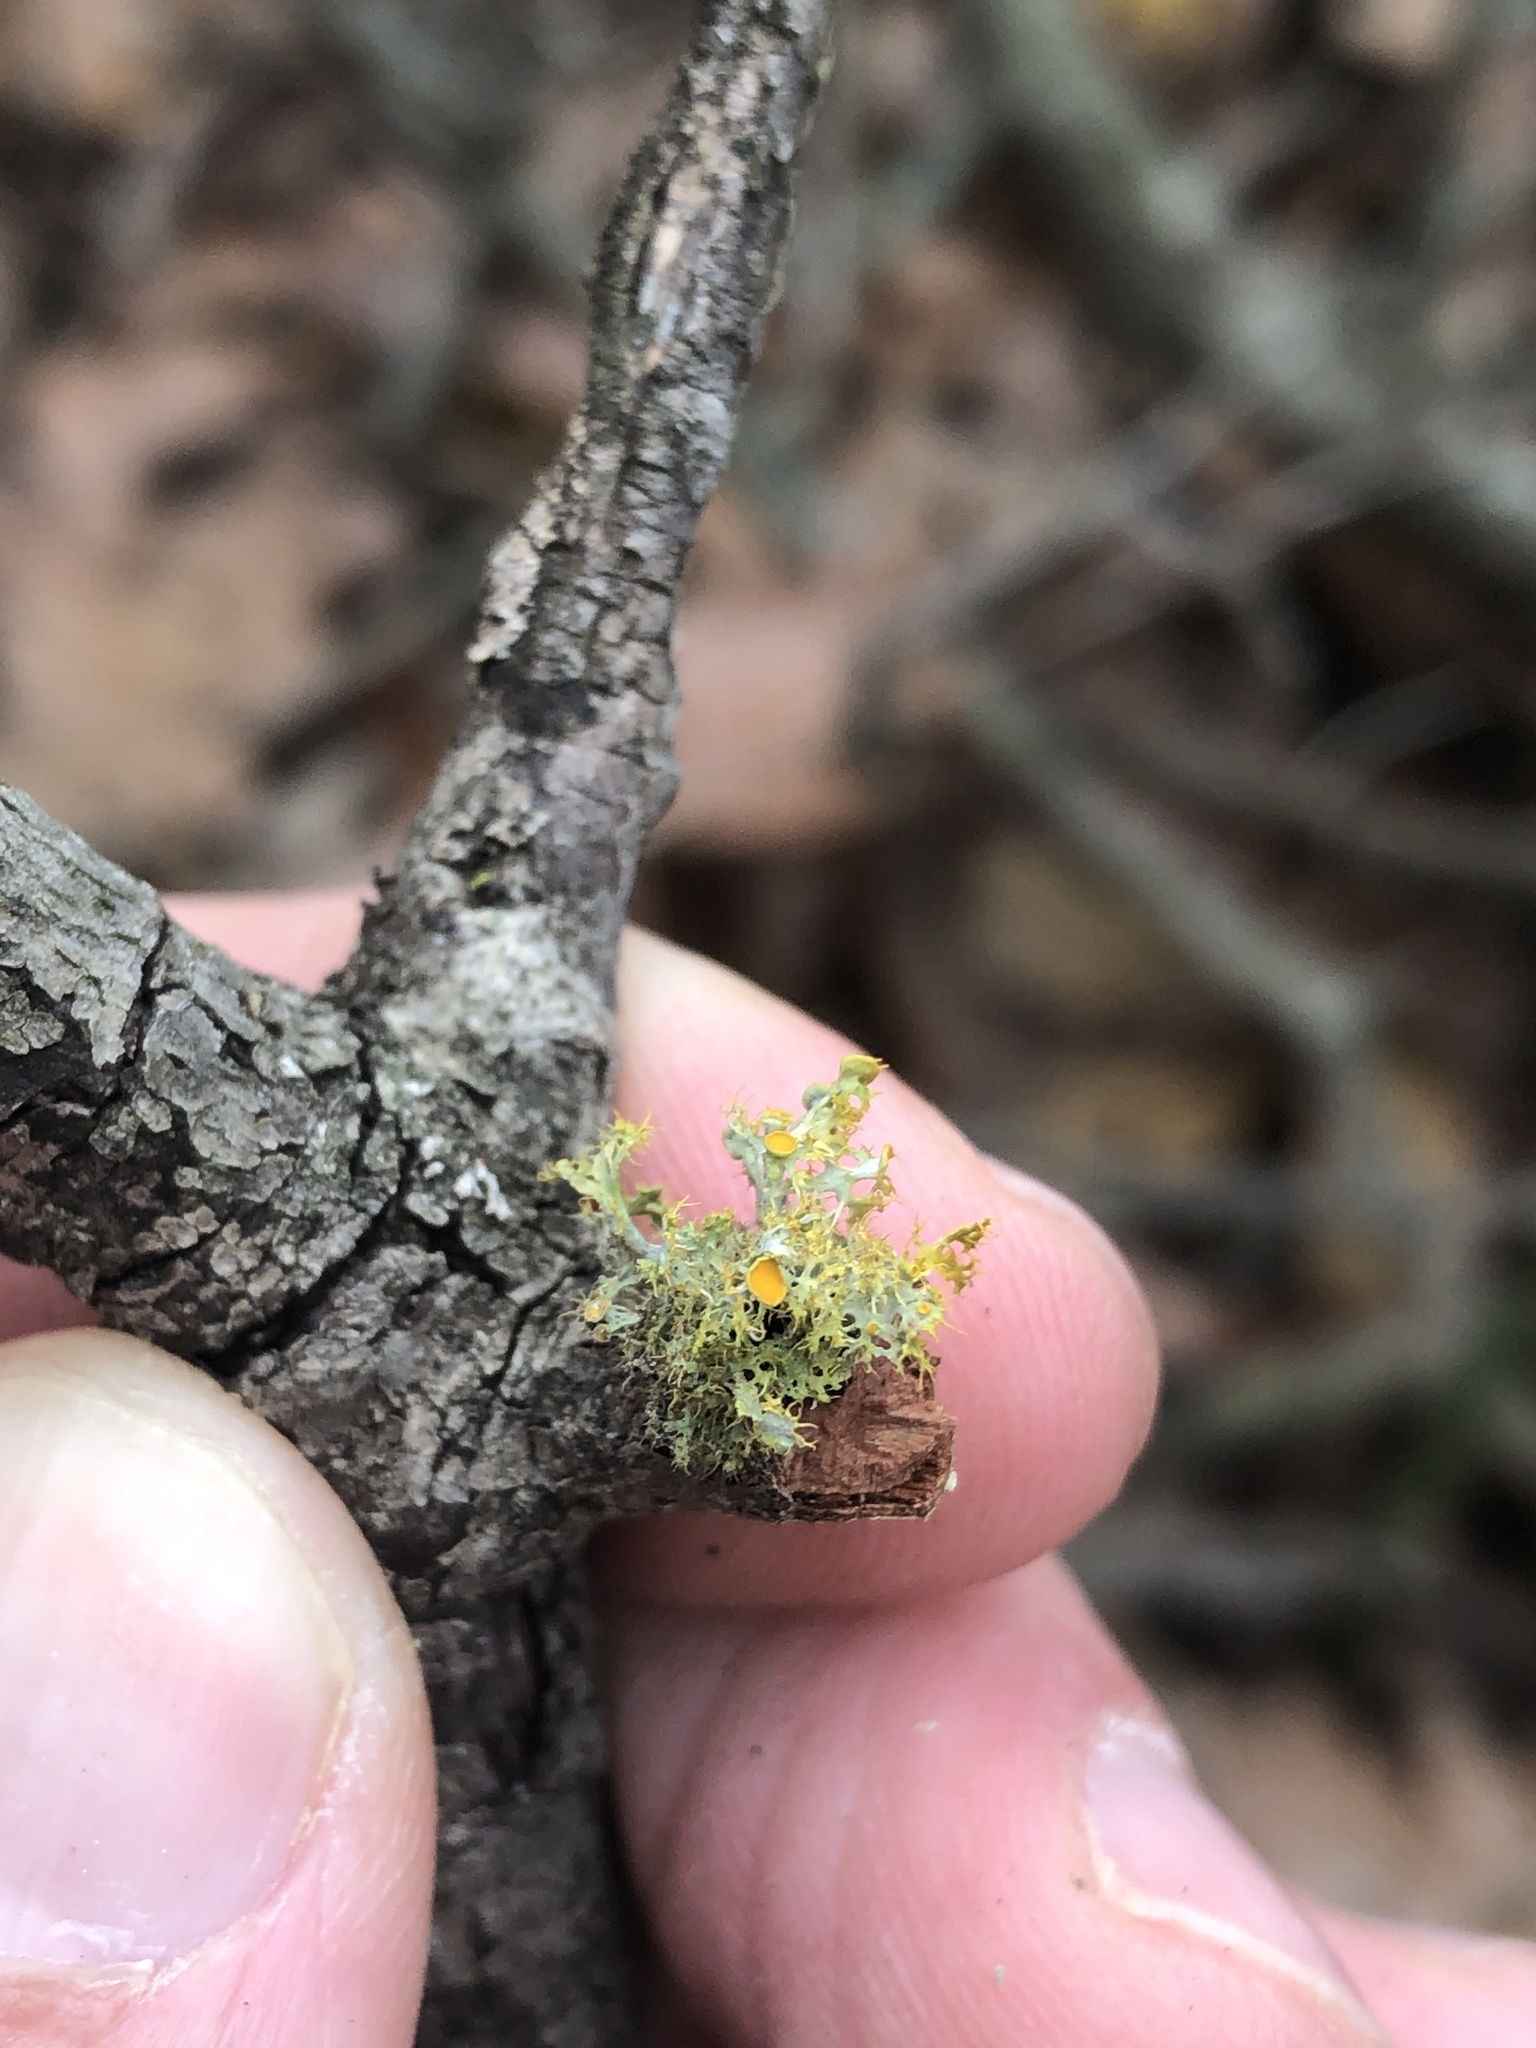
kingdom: Fungi
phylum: Ascomycota
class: Lecanoromycetes
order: Teloschistales
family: Teloschistaceae
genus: Niorma
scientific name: Niorma chrysophthalma
